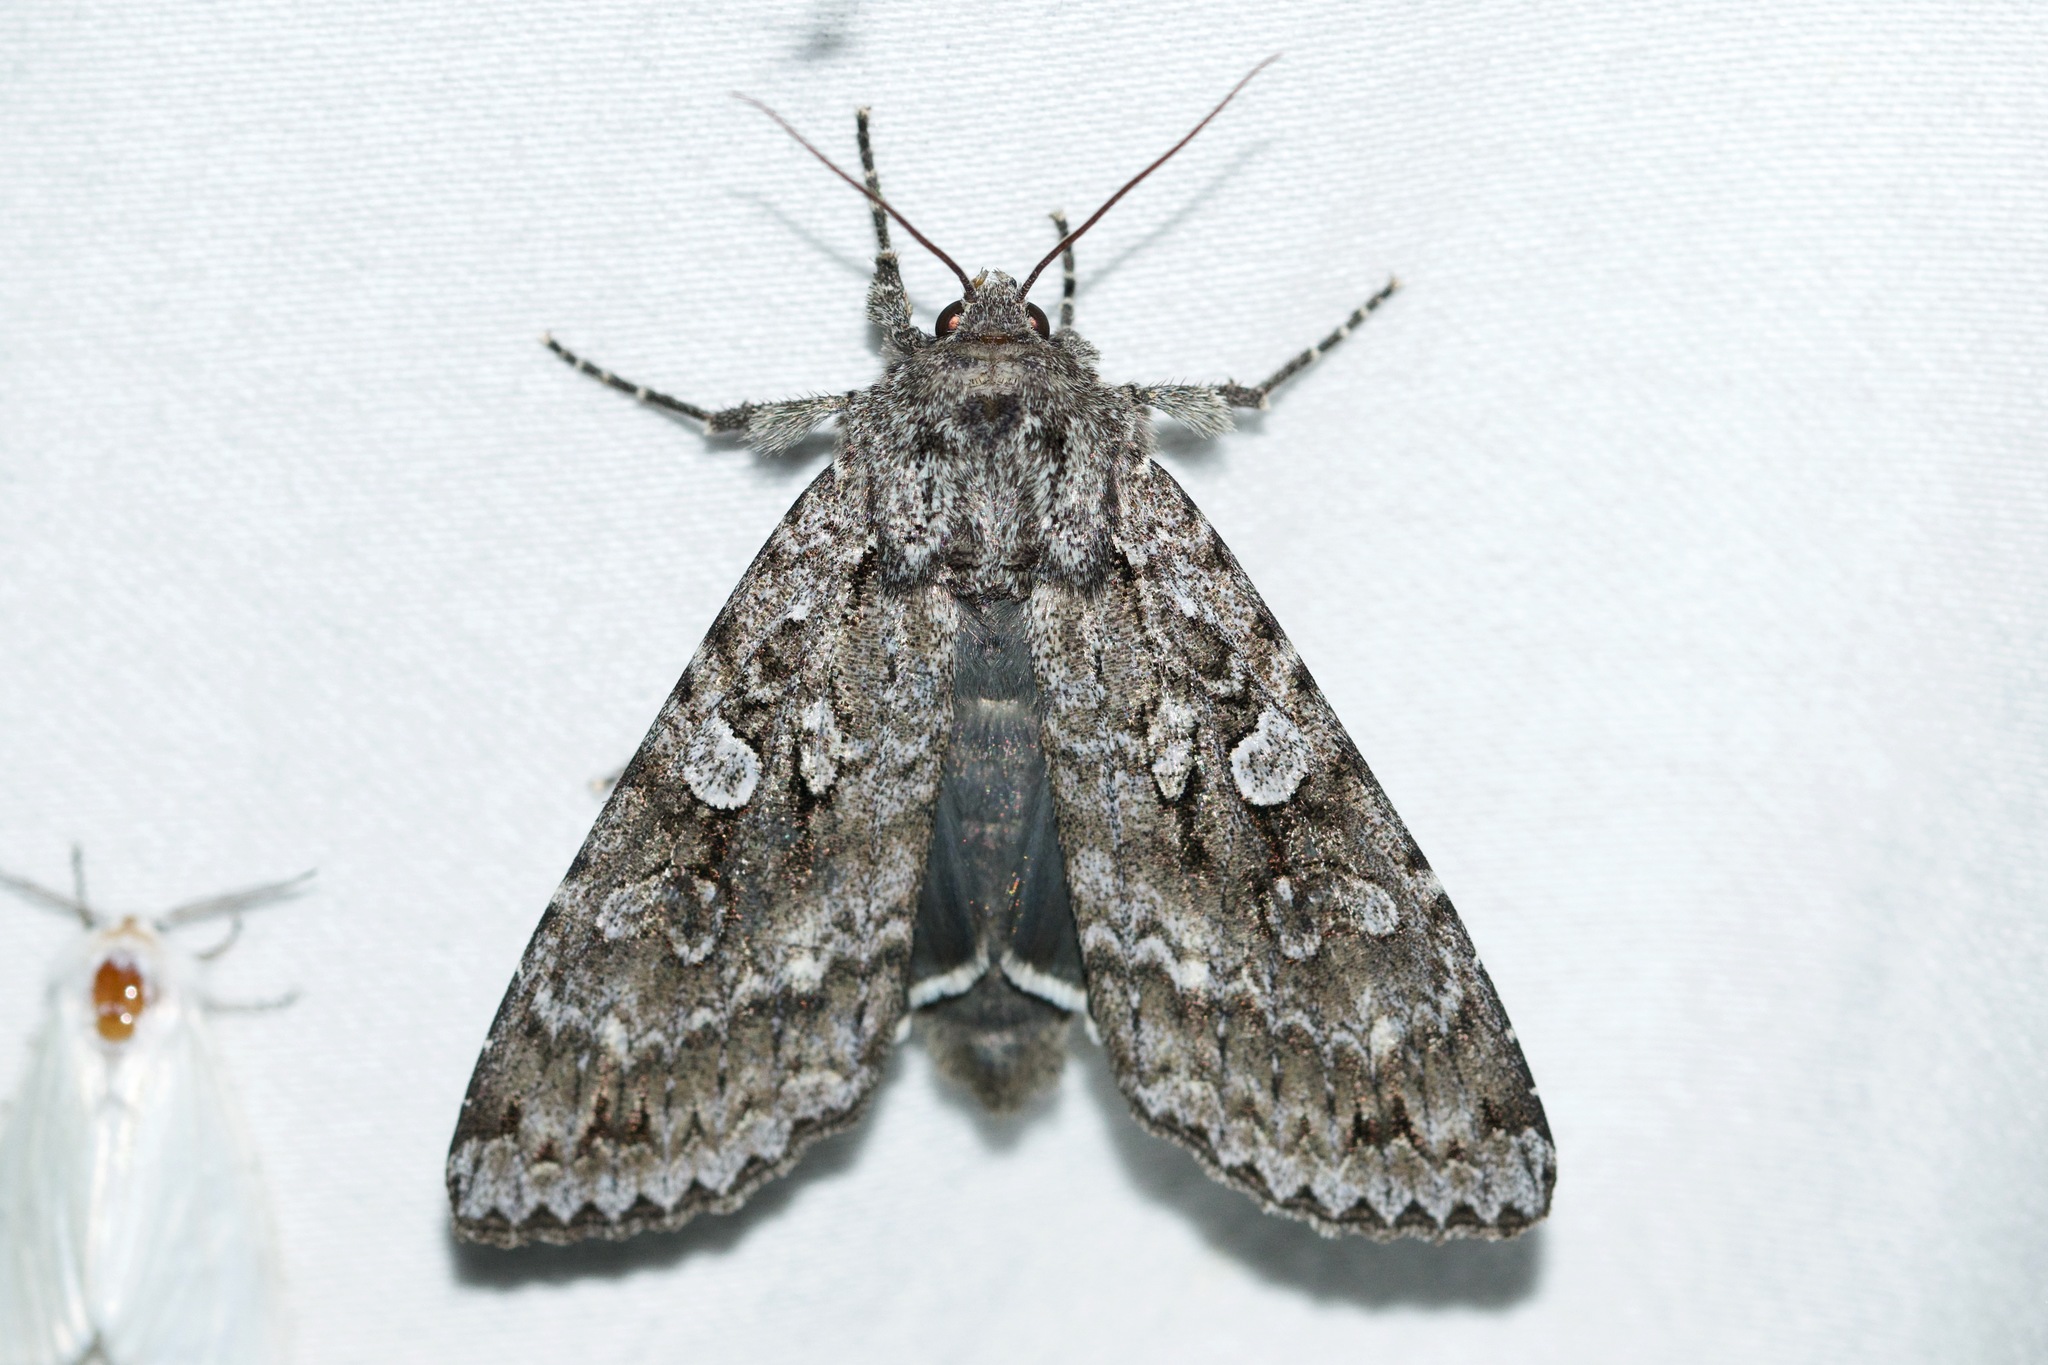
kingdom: Animalia
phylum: Arthropoda
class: Insecta
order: Lepidoptera
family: Noctuidae
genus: Eurois
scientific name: Eurois occulta
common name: Great brocade
